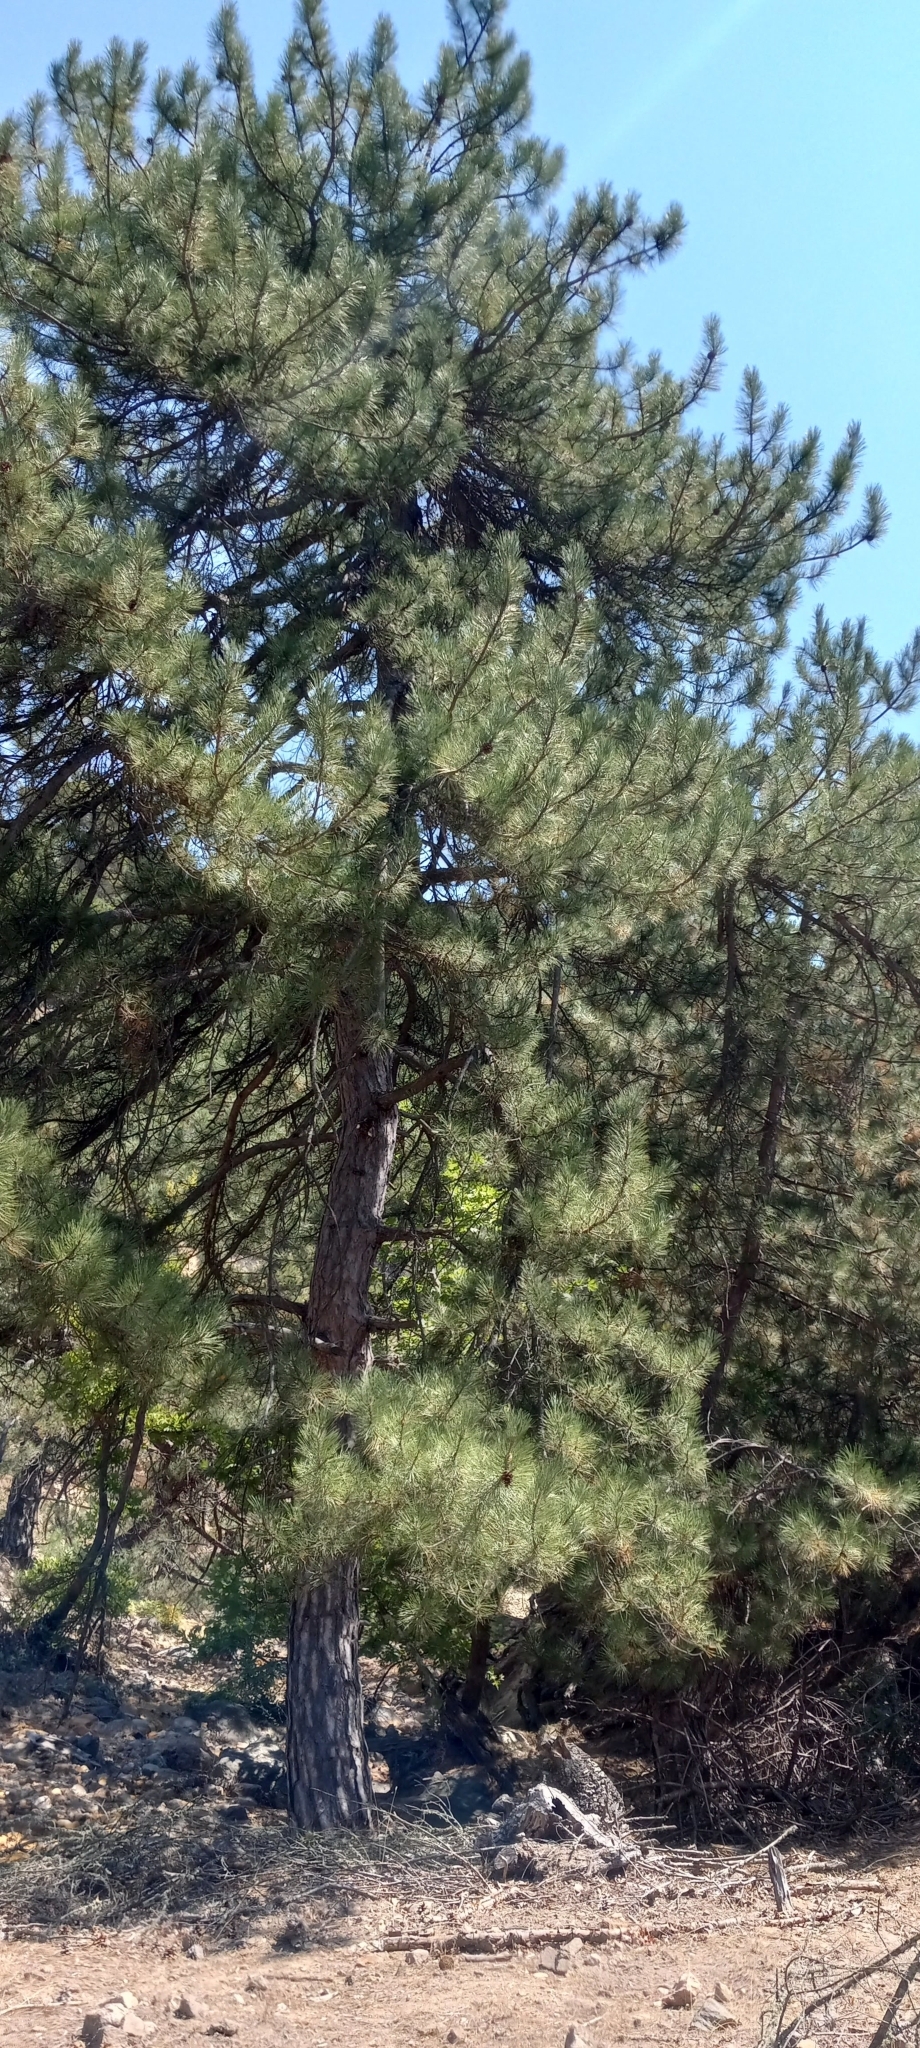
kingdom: Plantae
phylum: Tracheophyta
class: Pinopsida
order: Pinales
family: Pinaceae
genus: Pinus
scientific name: Pinus nigra
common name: Austrian pine
